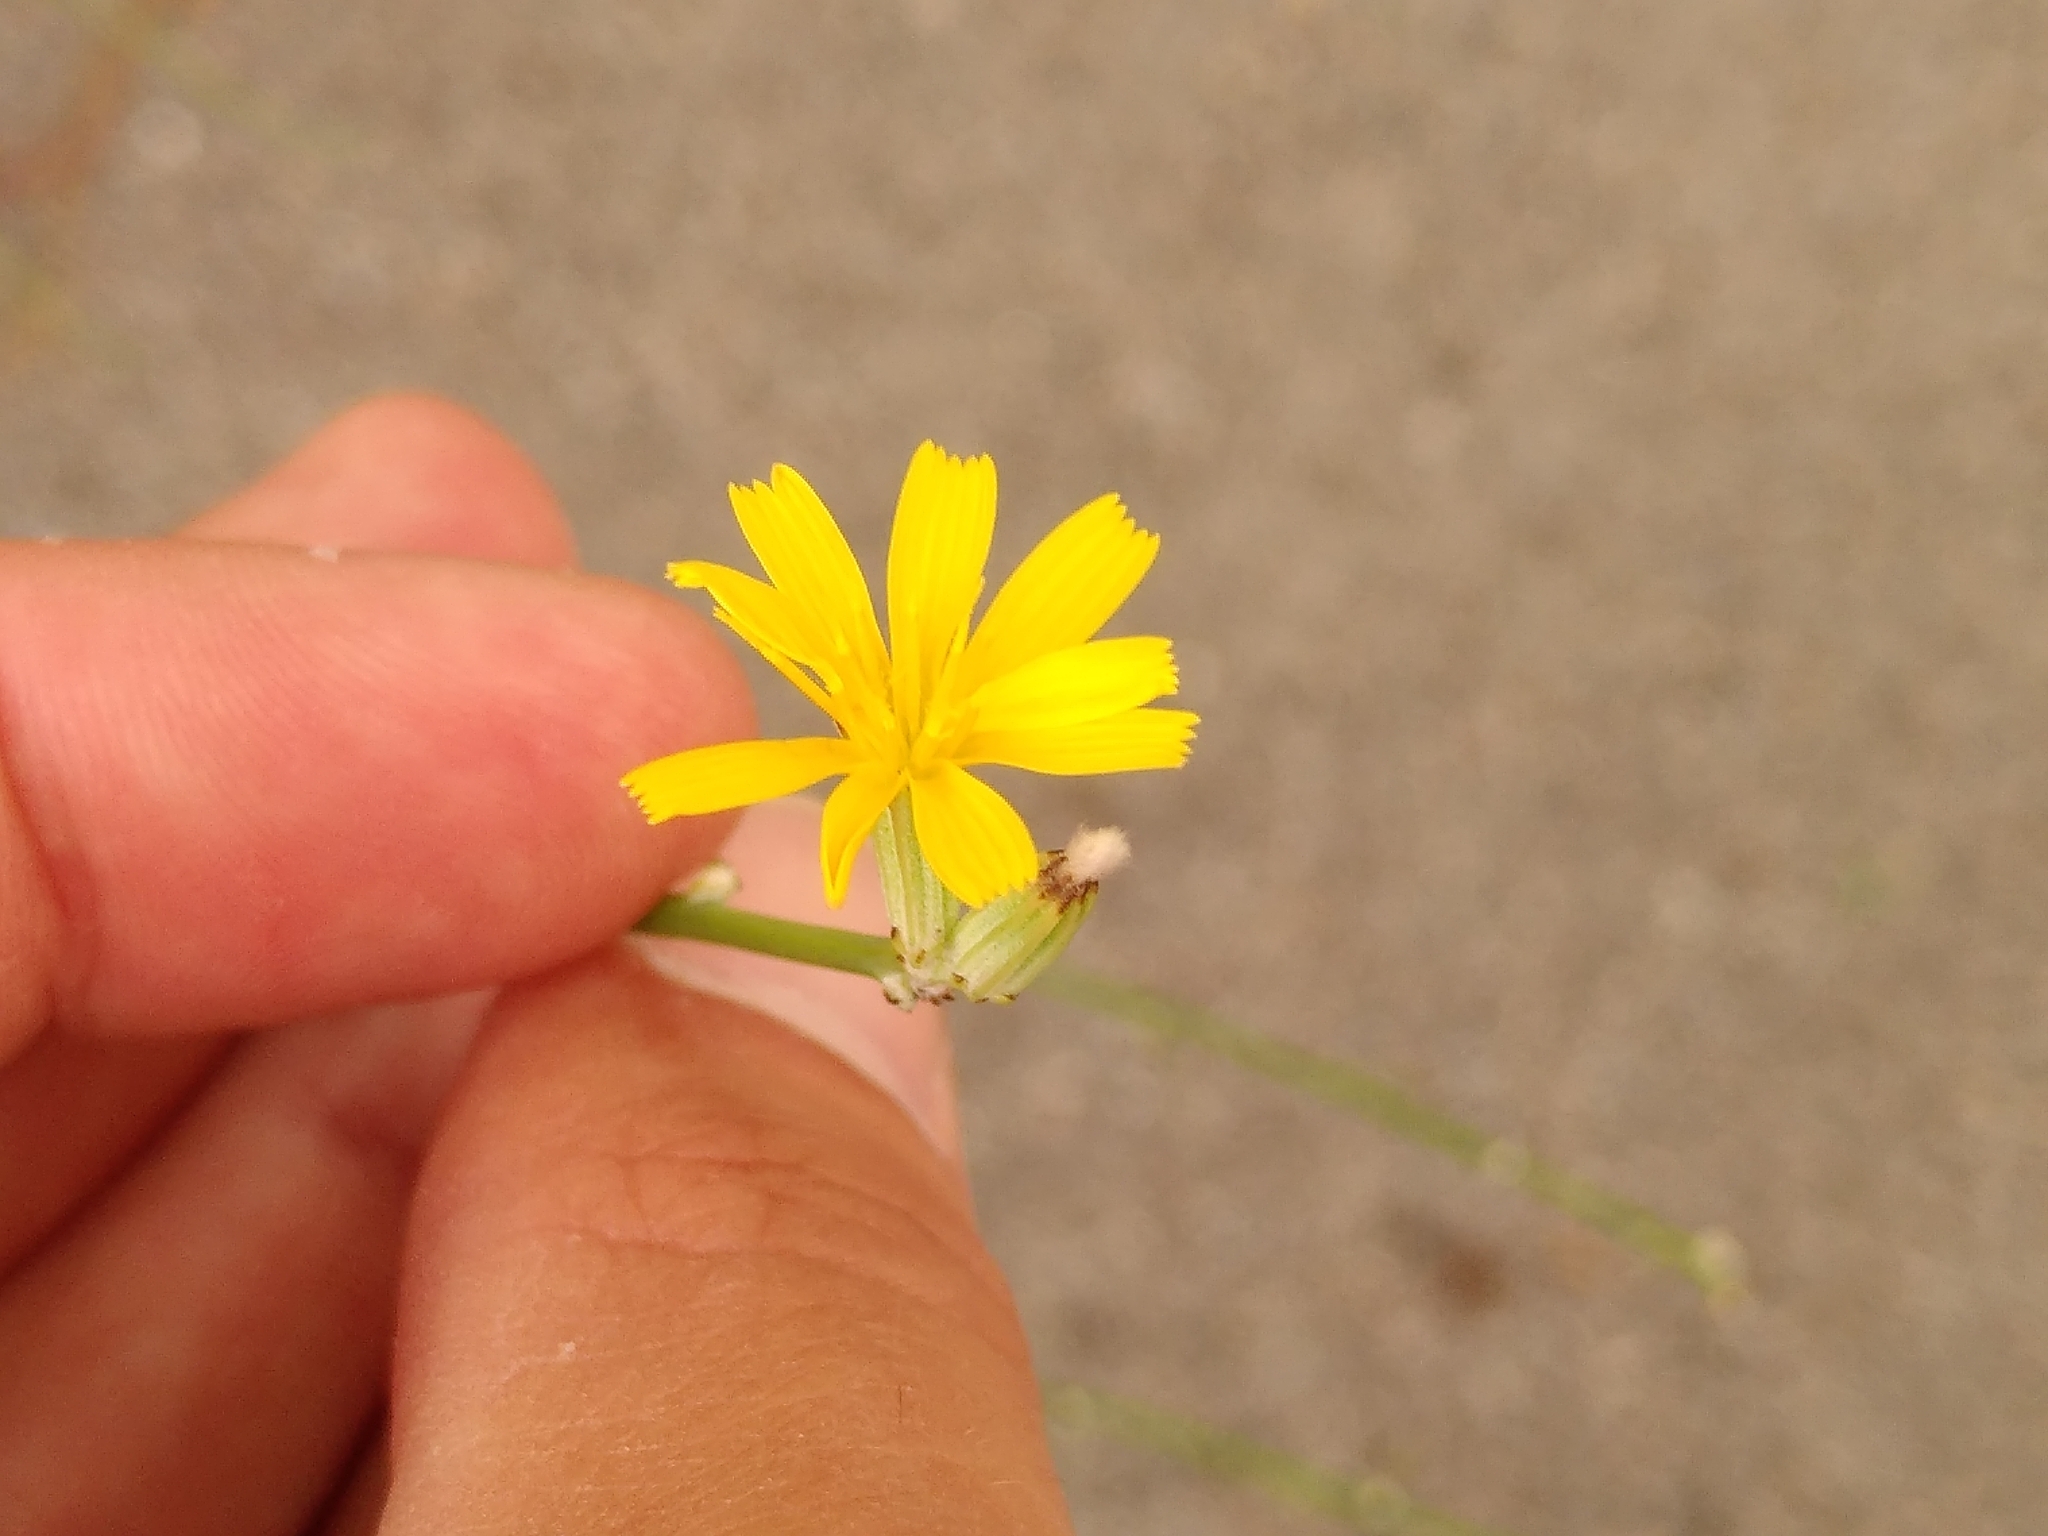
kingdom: Plantae
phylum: Tracheophyta
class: Magnoliopsida
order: Asterales
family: Asteraceae
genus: Chondrilla
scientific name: Chondrilla juncea
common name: Skeleton weed
